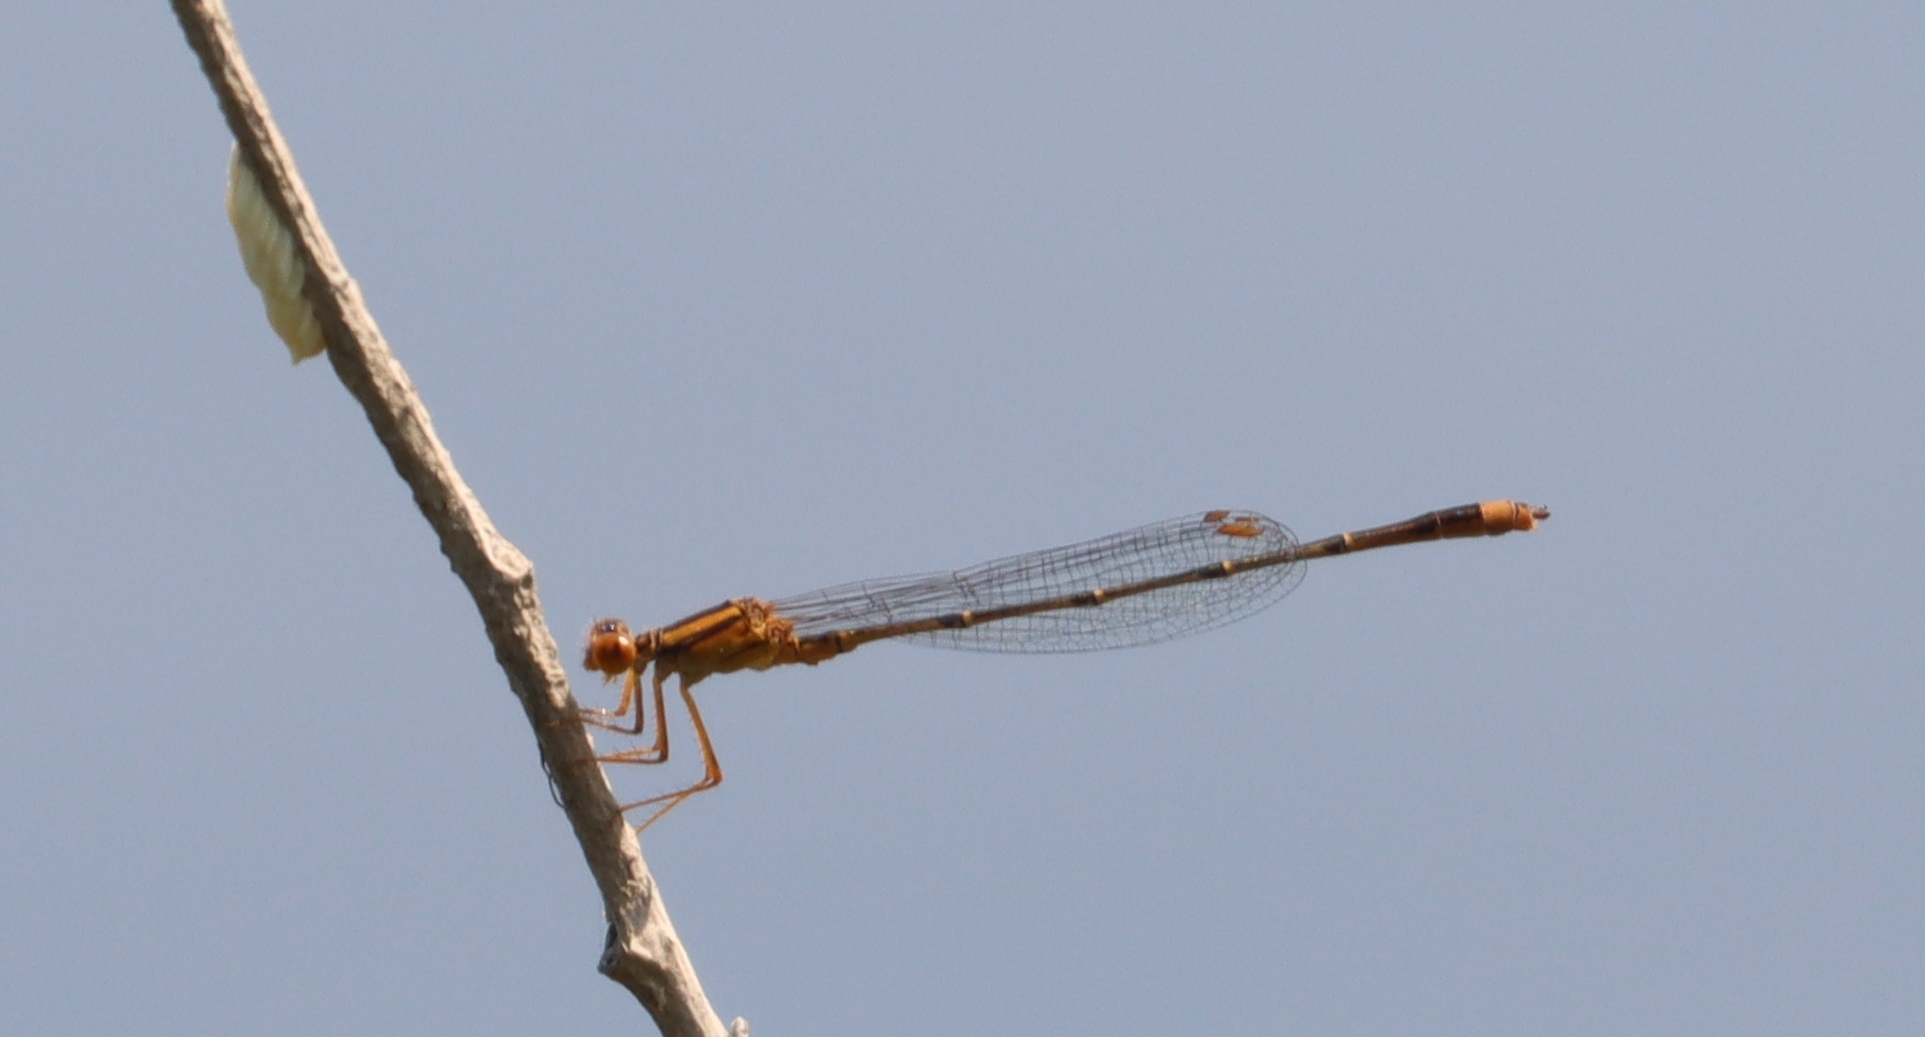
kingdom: Animalia
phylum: Arthropoda
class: Insecta
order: Odonata
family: Coenagrionidae
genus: Enallagma
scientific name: Enallagma signatum
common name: Orange bluet
